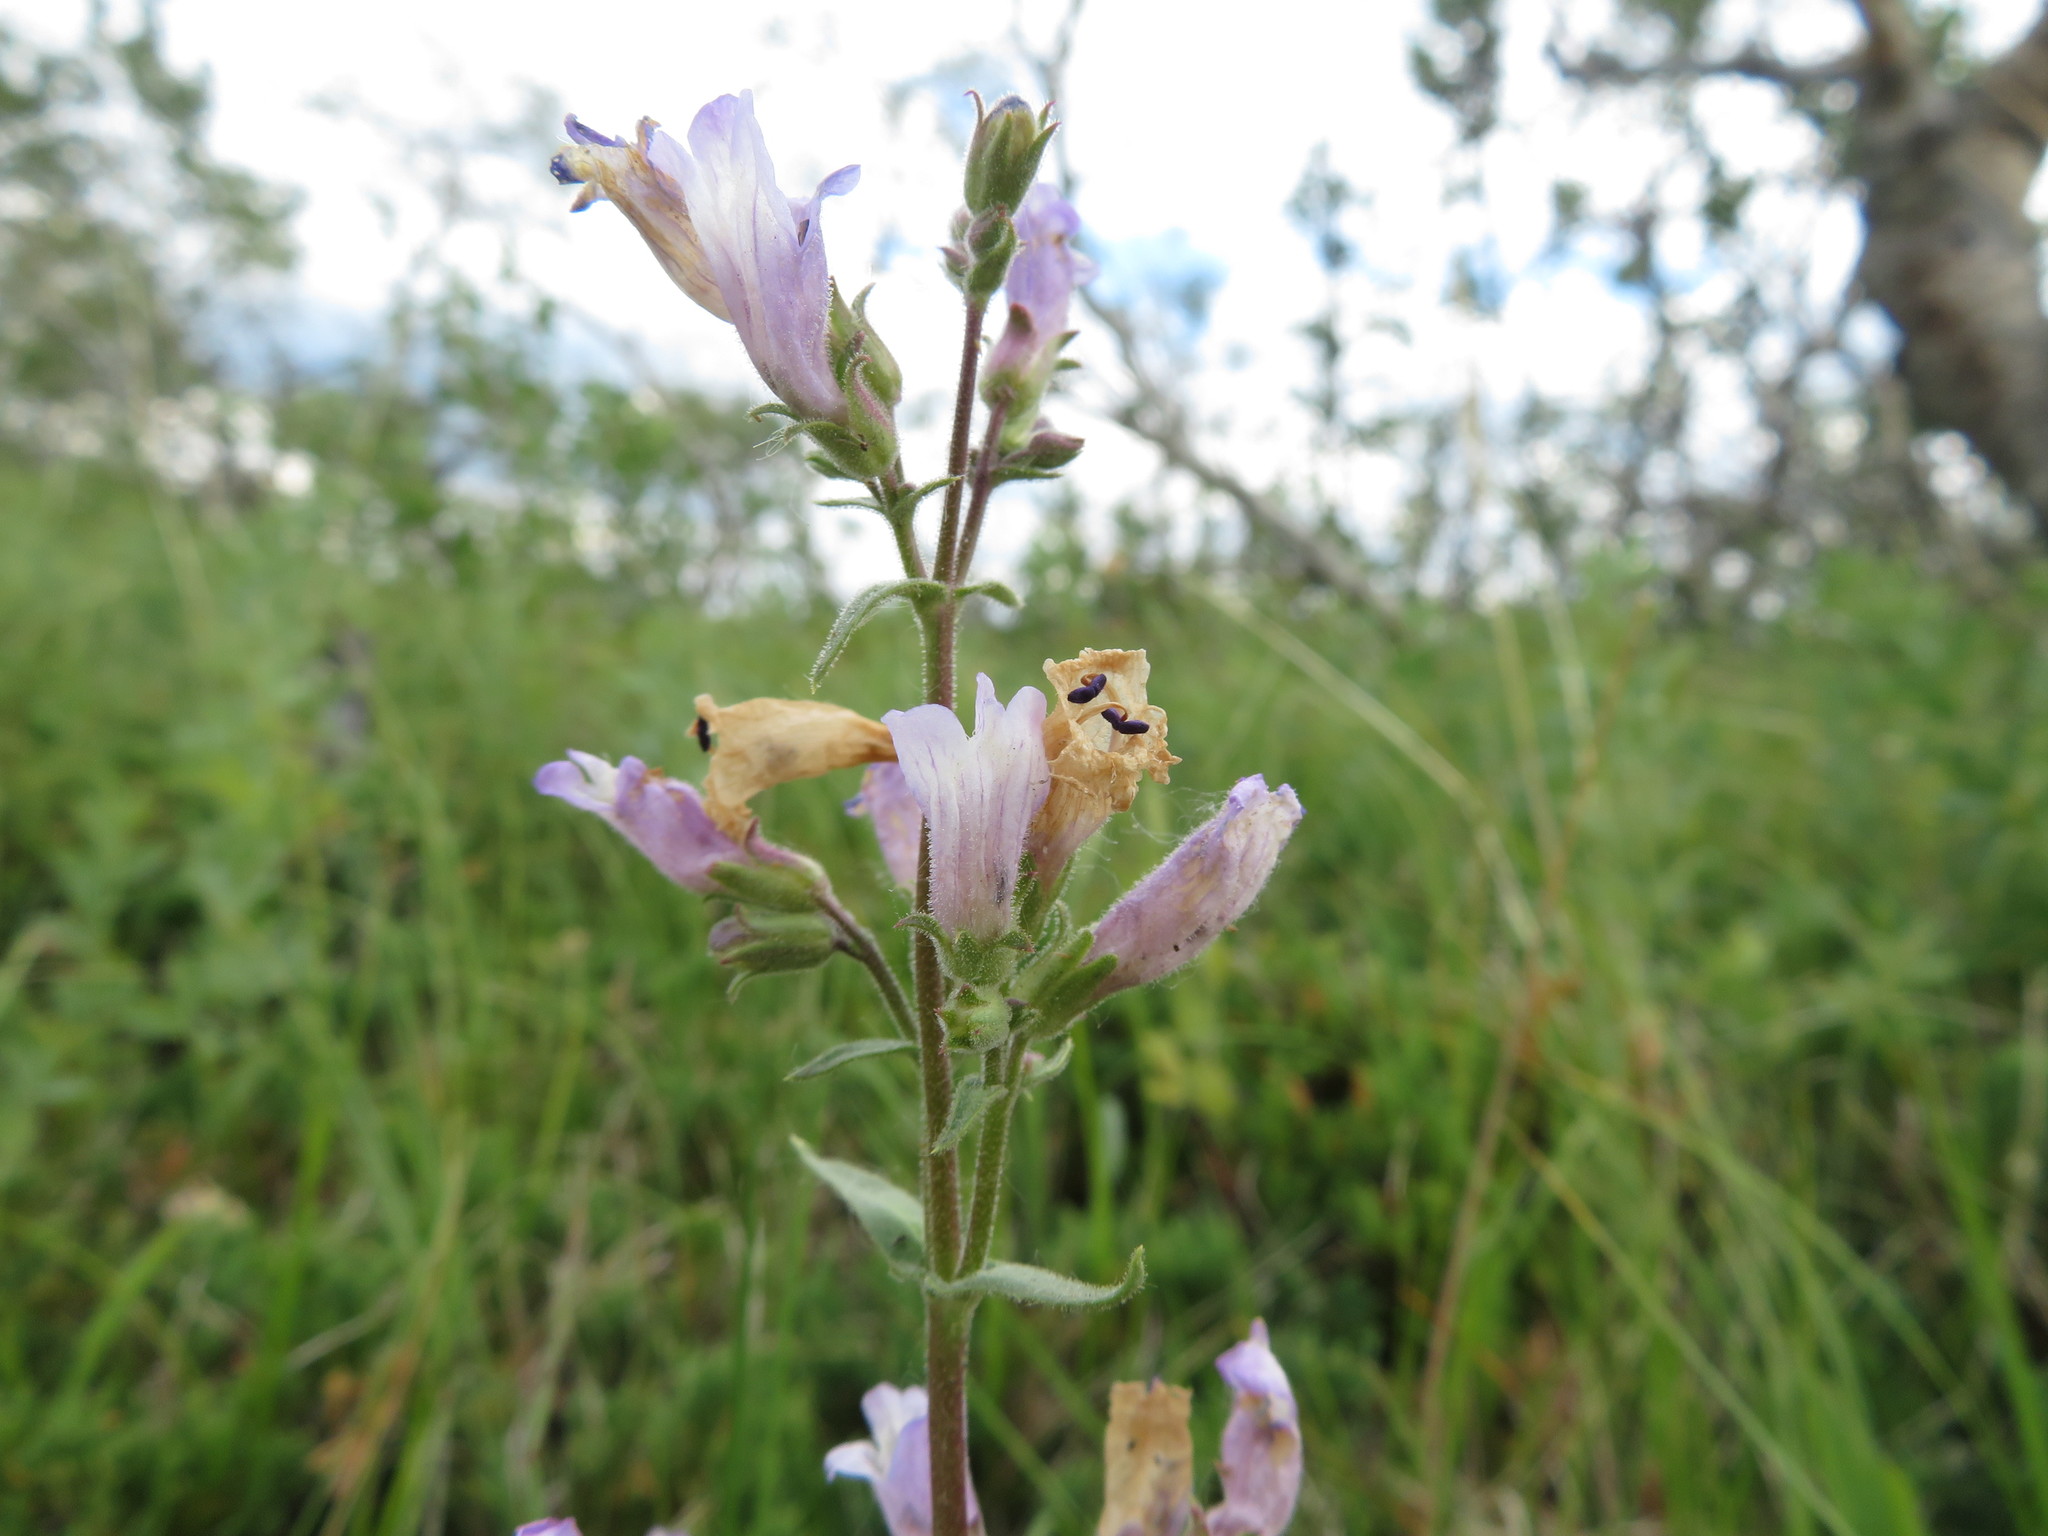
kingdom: Plantae
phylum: Tracheophyta
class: Magnoliopsida
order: Lamiales
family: Plantaginaceae
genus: Penstemon
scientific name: Penstemon gracilis
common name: Slender beardtongue
